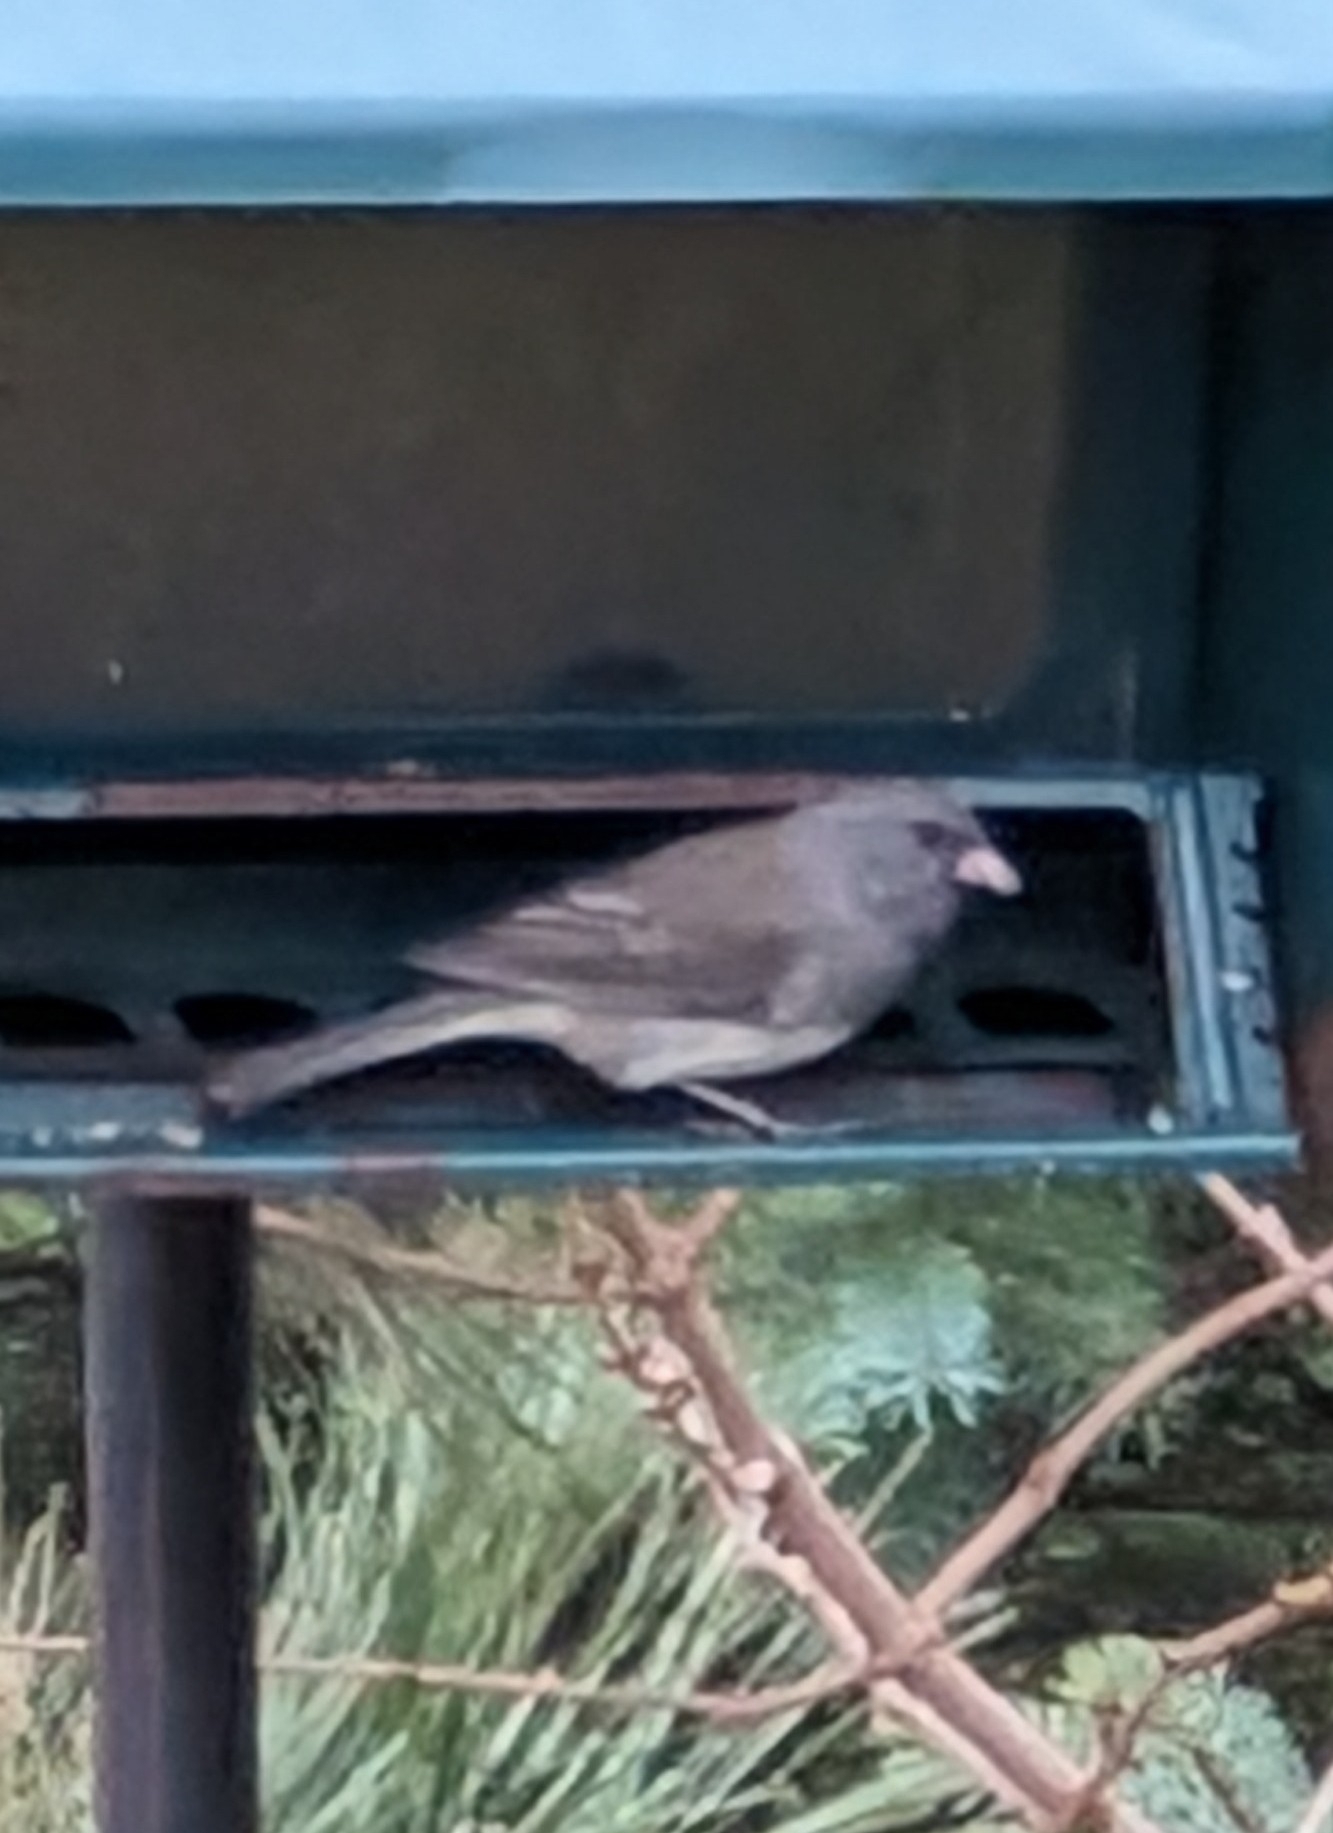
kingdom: Animalia
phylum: Chordata
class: Aves
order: Passeriformes
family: Passerellidae
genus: Junco
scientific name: Junco hyemalis
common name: Dark-eyed junco
